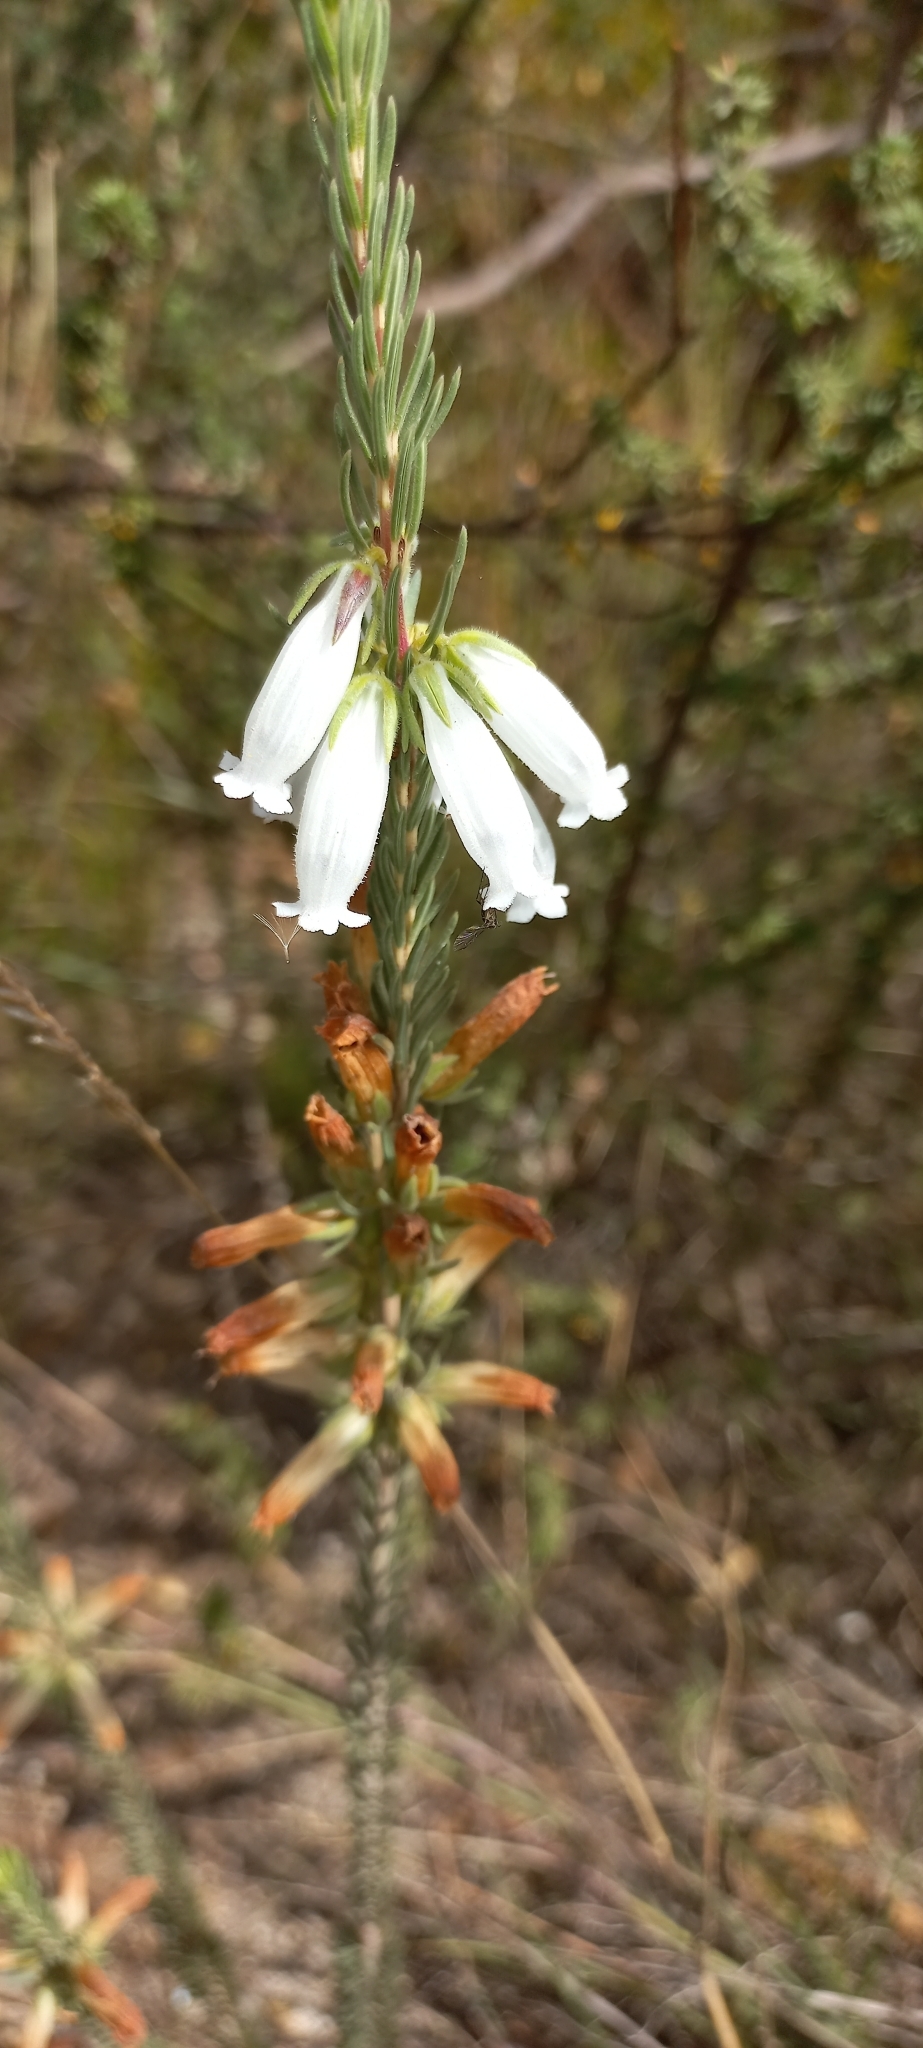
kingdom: Plantae
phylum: Tracheophyta
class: Magnoliopsida
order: Ericales
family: Ericaceae
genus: Erica
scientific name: Erica viscaria
